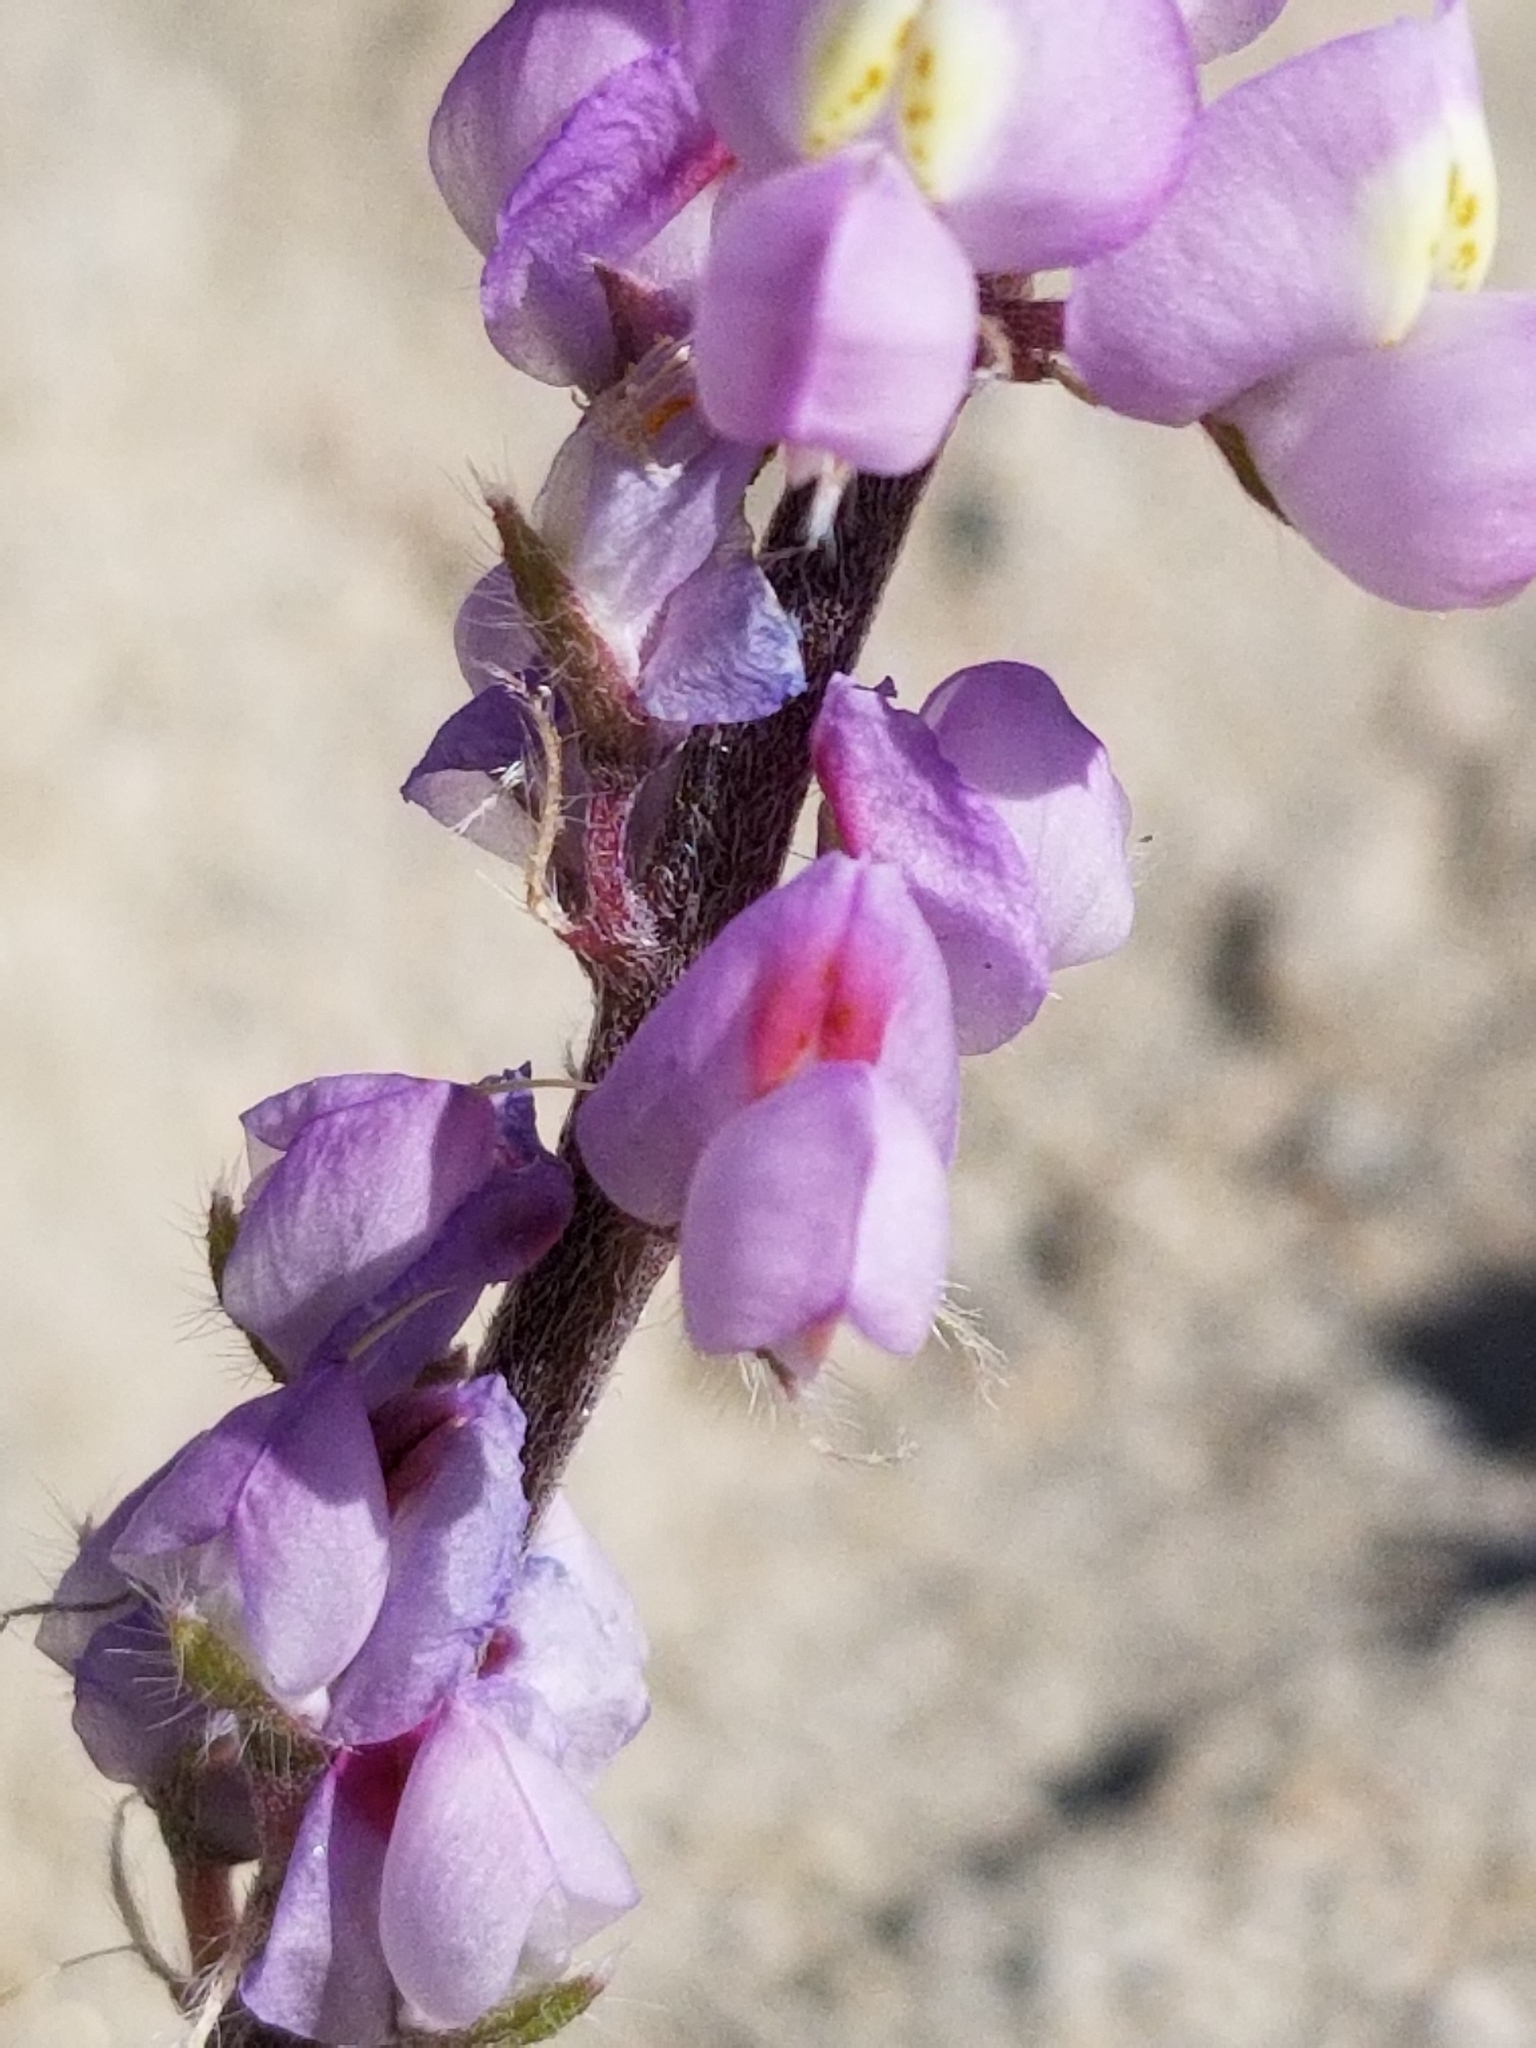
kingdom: Plantae
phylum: Tracheophyta
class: Magnoliopsida
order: Fabales
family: Fabaceae
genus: Lupinus
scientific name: Lupinus arizonicus
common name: Arizona lupine
